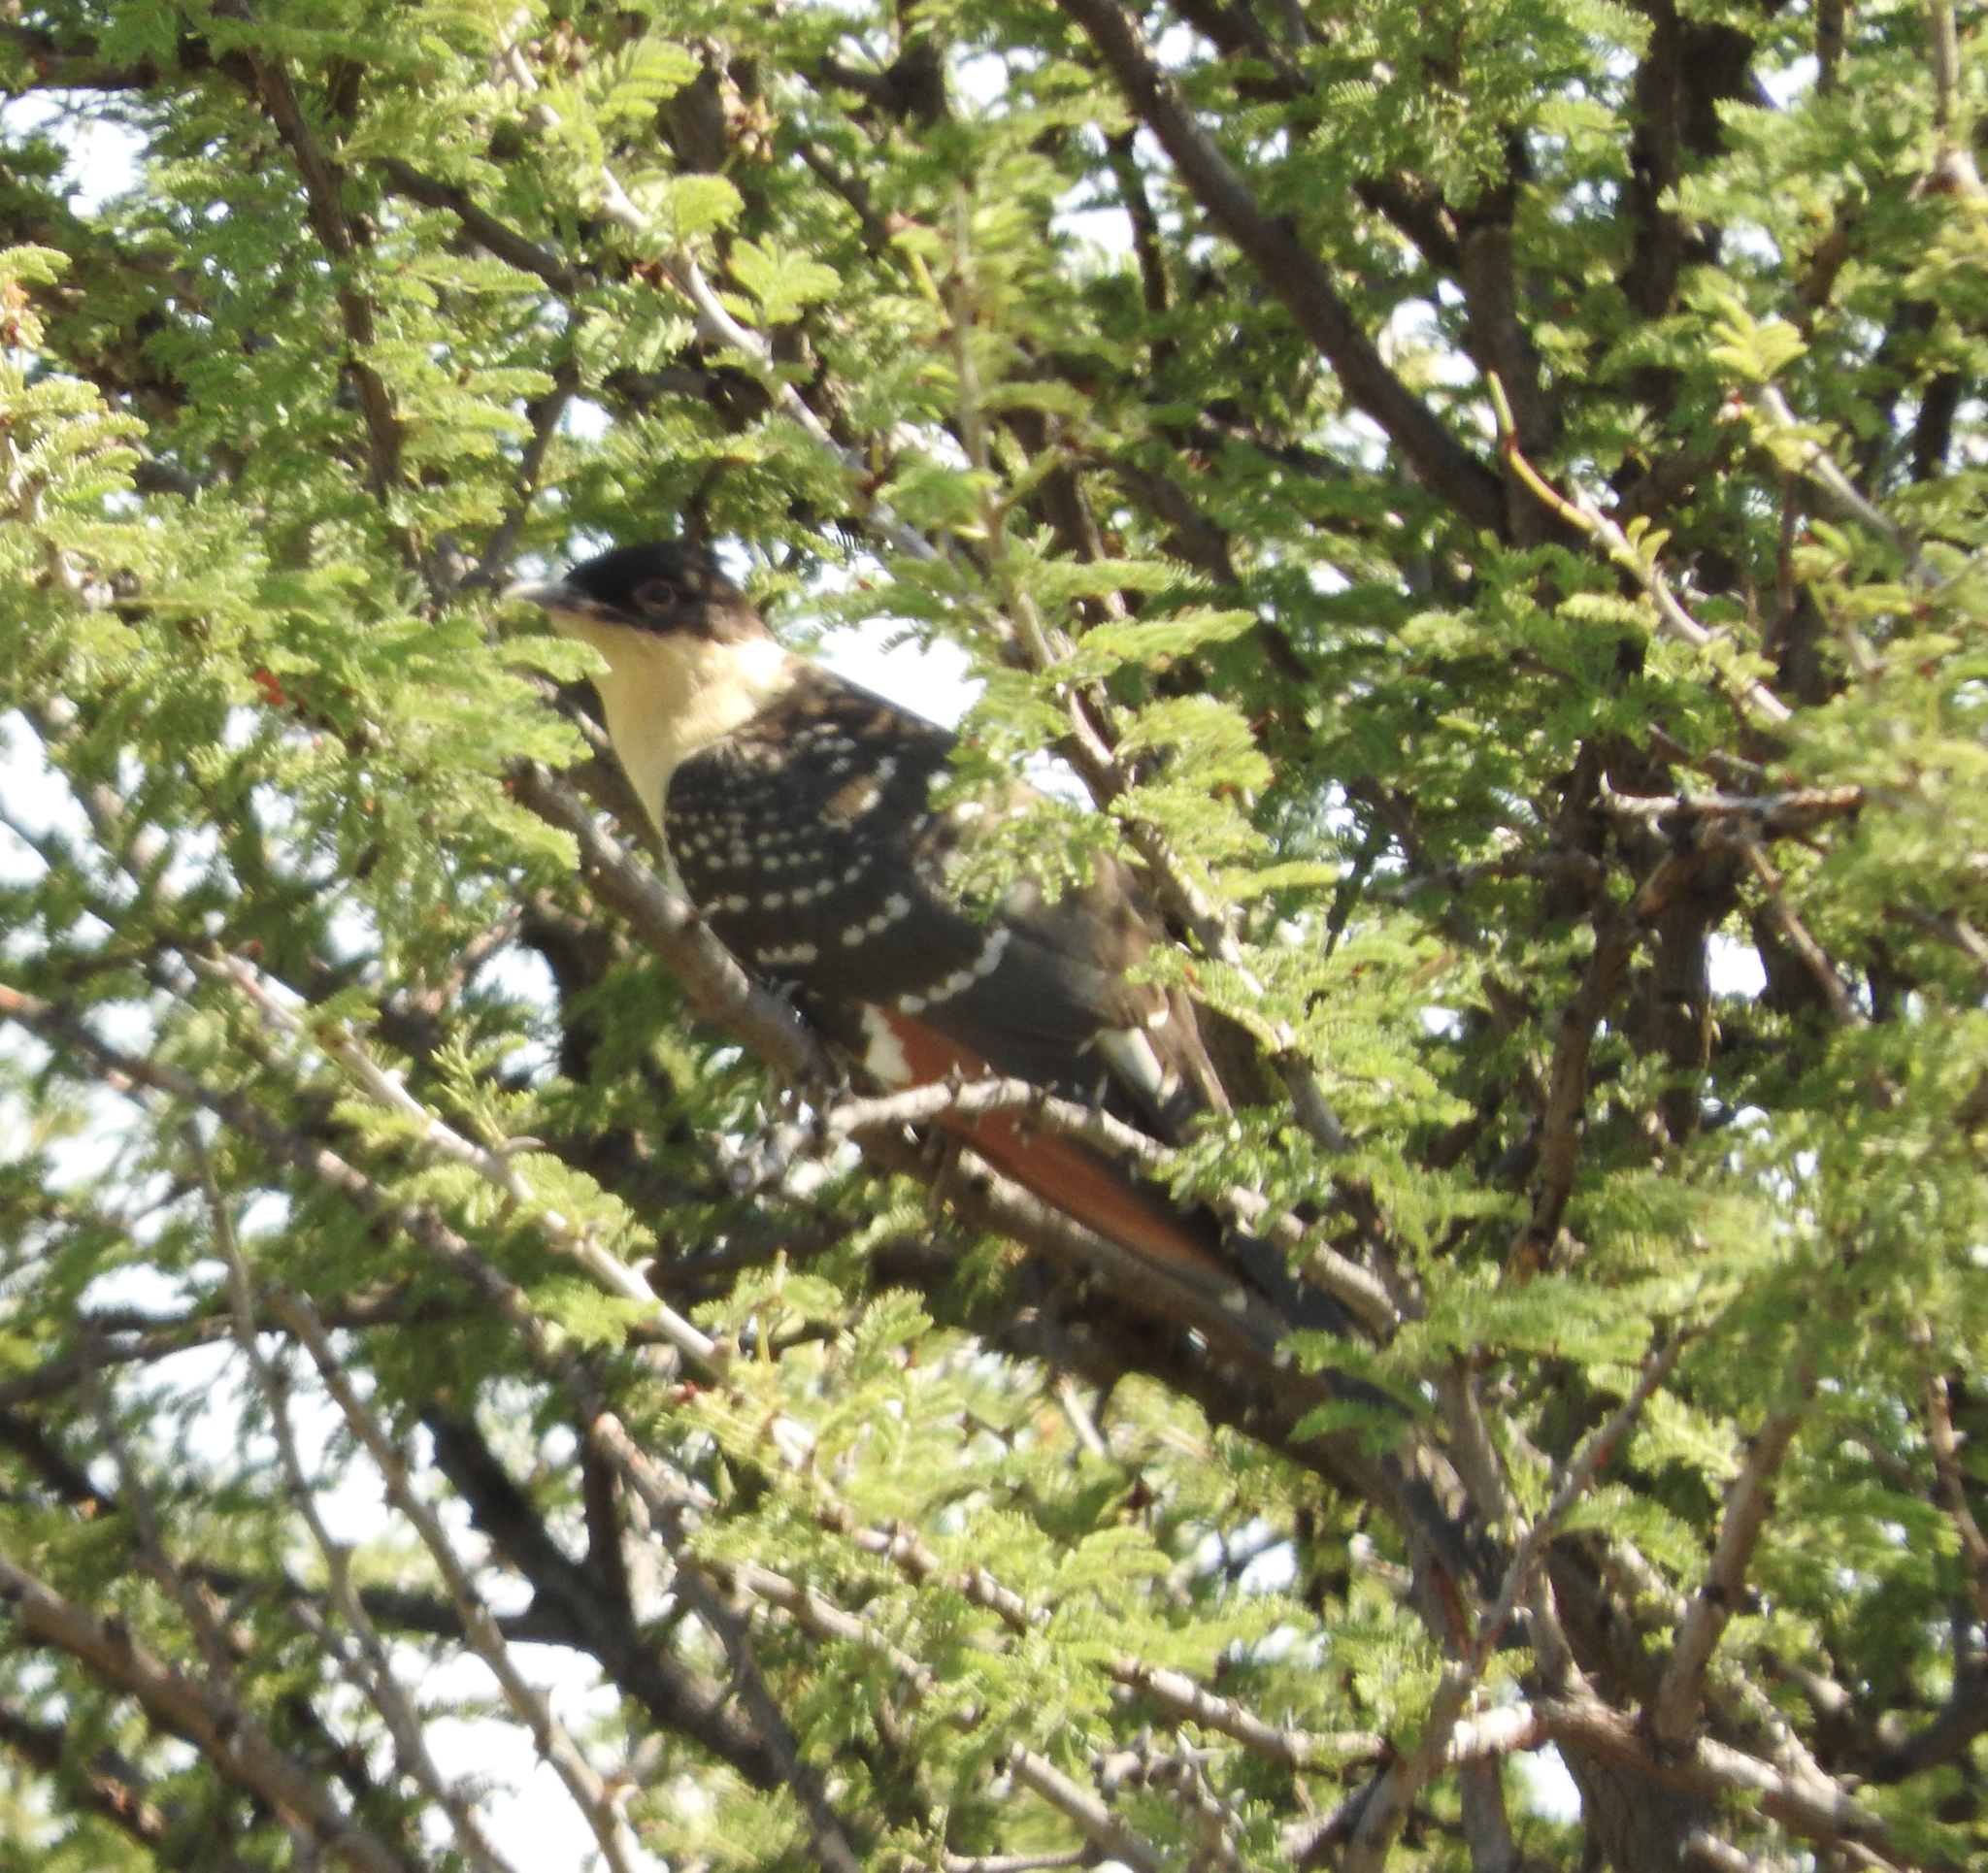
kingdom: Animalia
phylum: Chordata
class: Aves
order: Cuculiformes
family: Cuculidae
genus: Clamator
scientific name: Clamator glandarius
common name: Great spotted cuckoo
